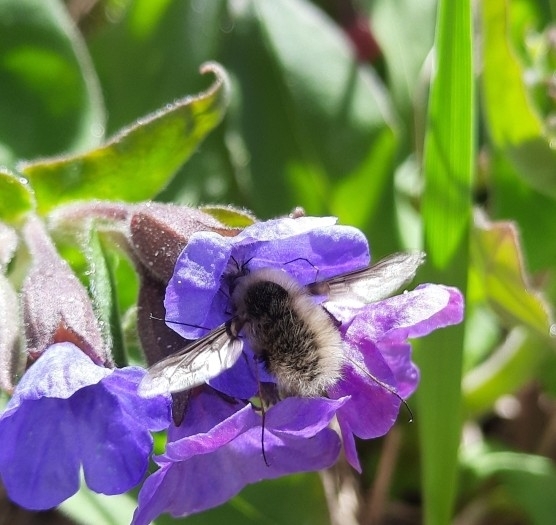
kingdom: Animalia
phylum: Arthropoda
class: Insecta
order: Diptera
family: Bombyliidae
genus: Bombylius
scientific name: Bombylius cinerascens
